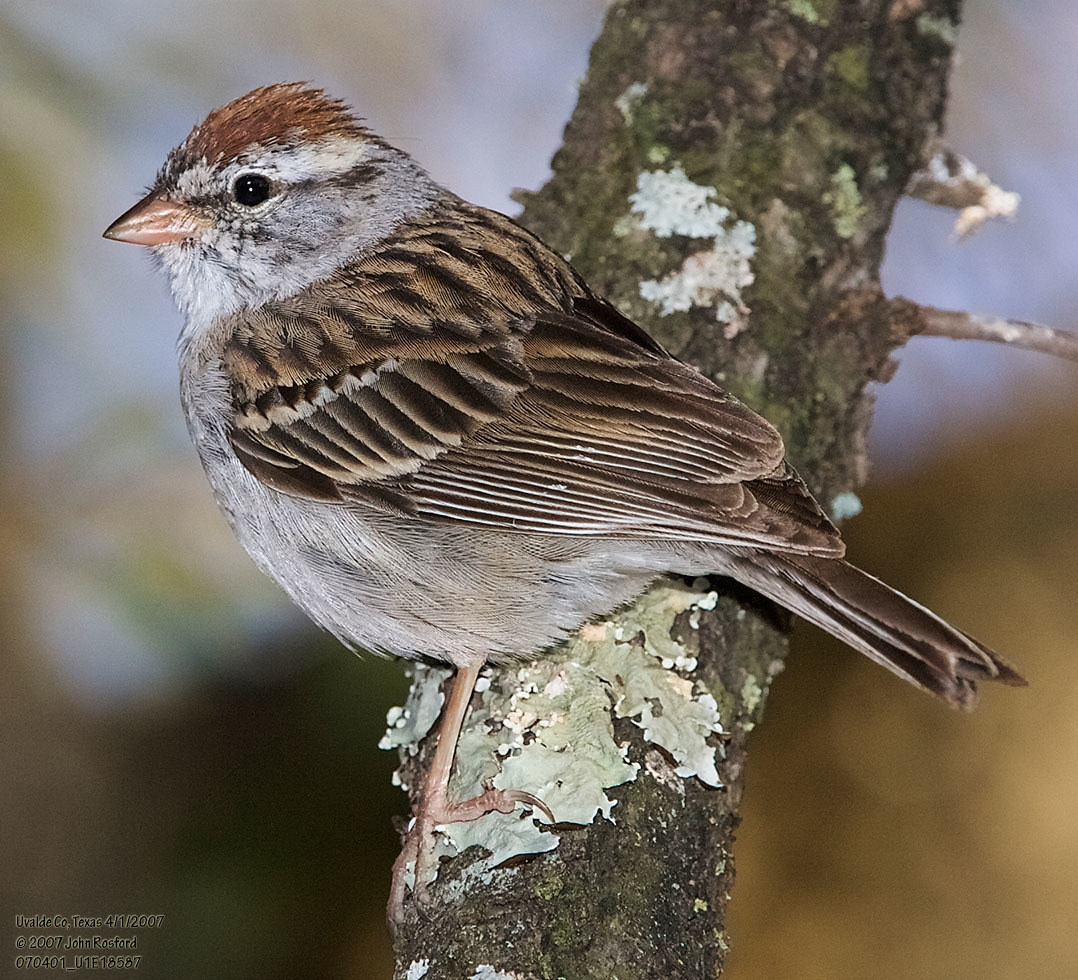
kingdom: Animalia
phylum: Chordata
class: Aves
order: Passeriformes
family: Passerellidae
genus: Spizella
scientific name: Spizella passerina
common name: Chipping sparrow
